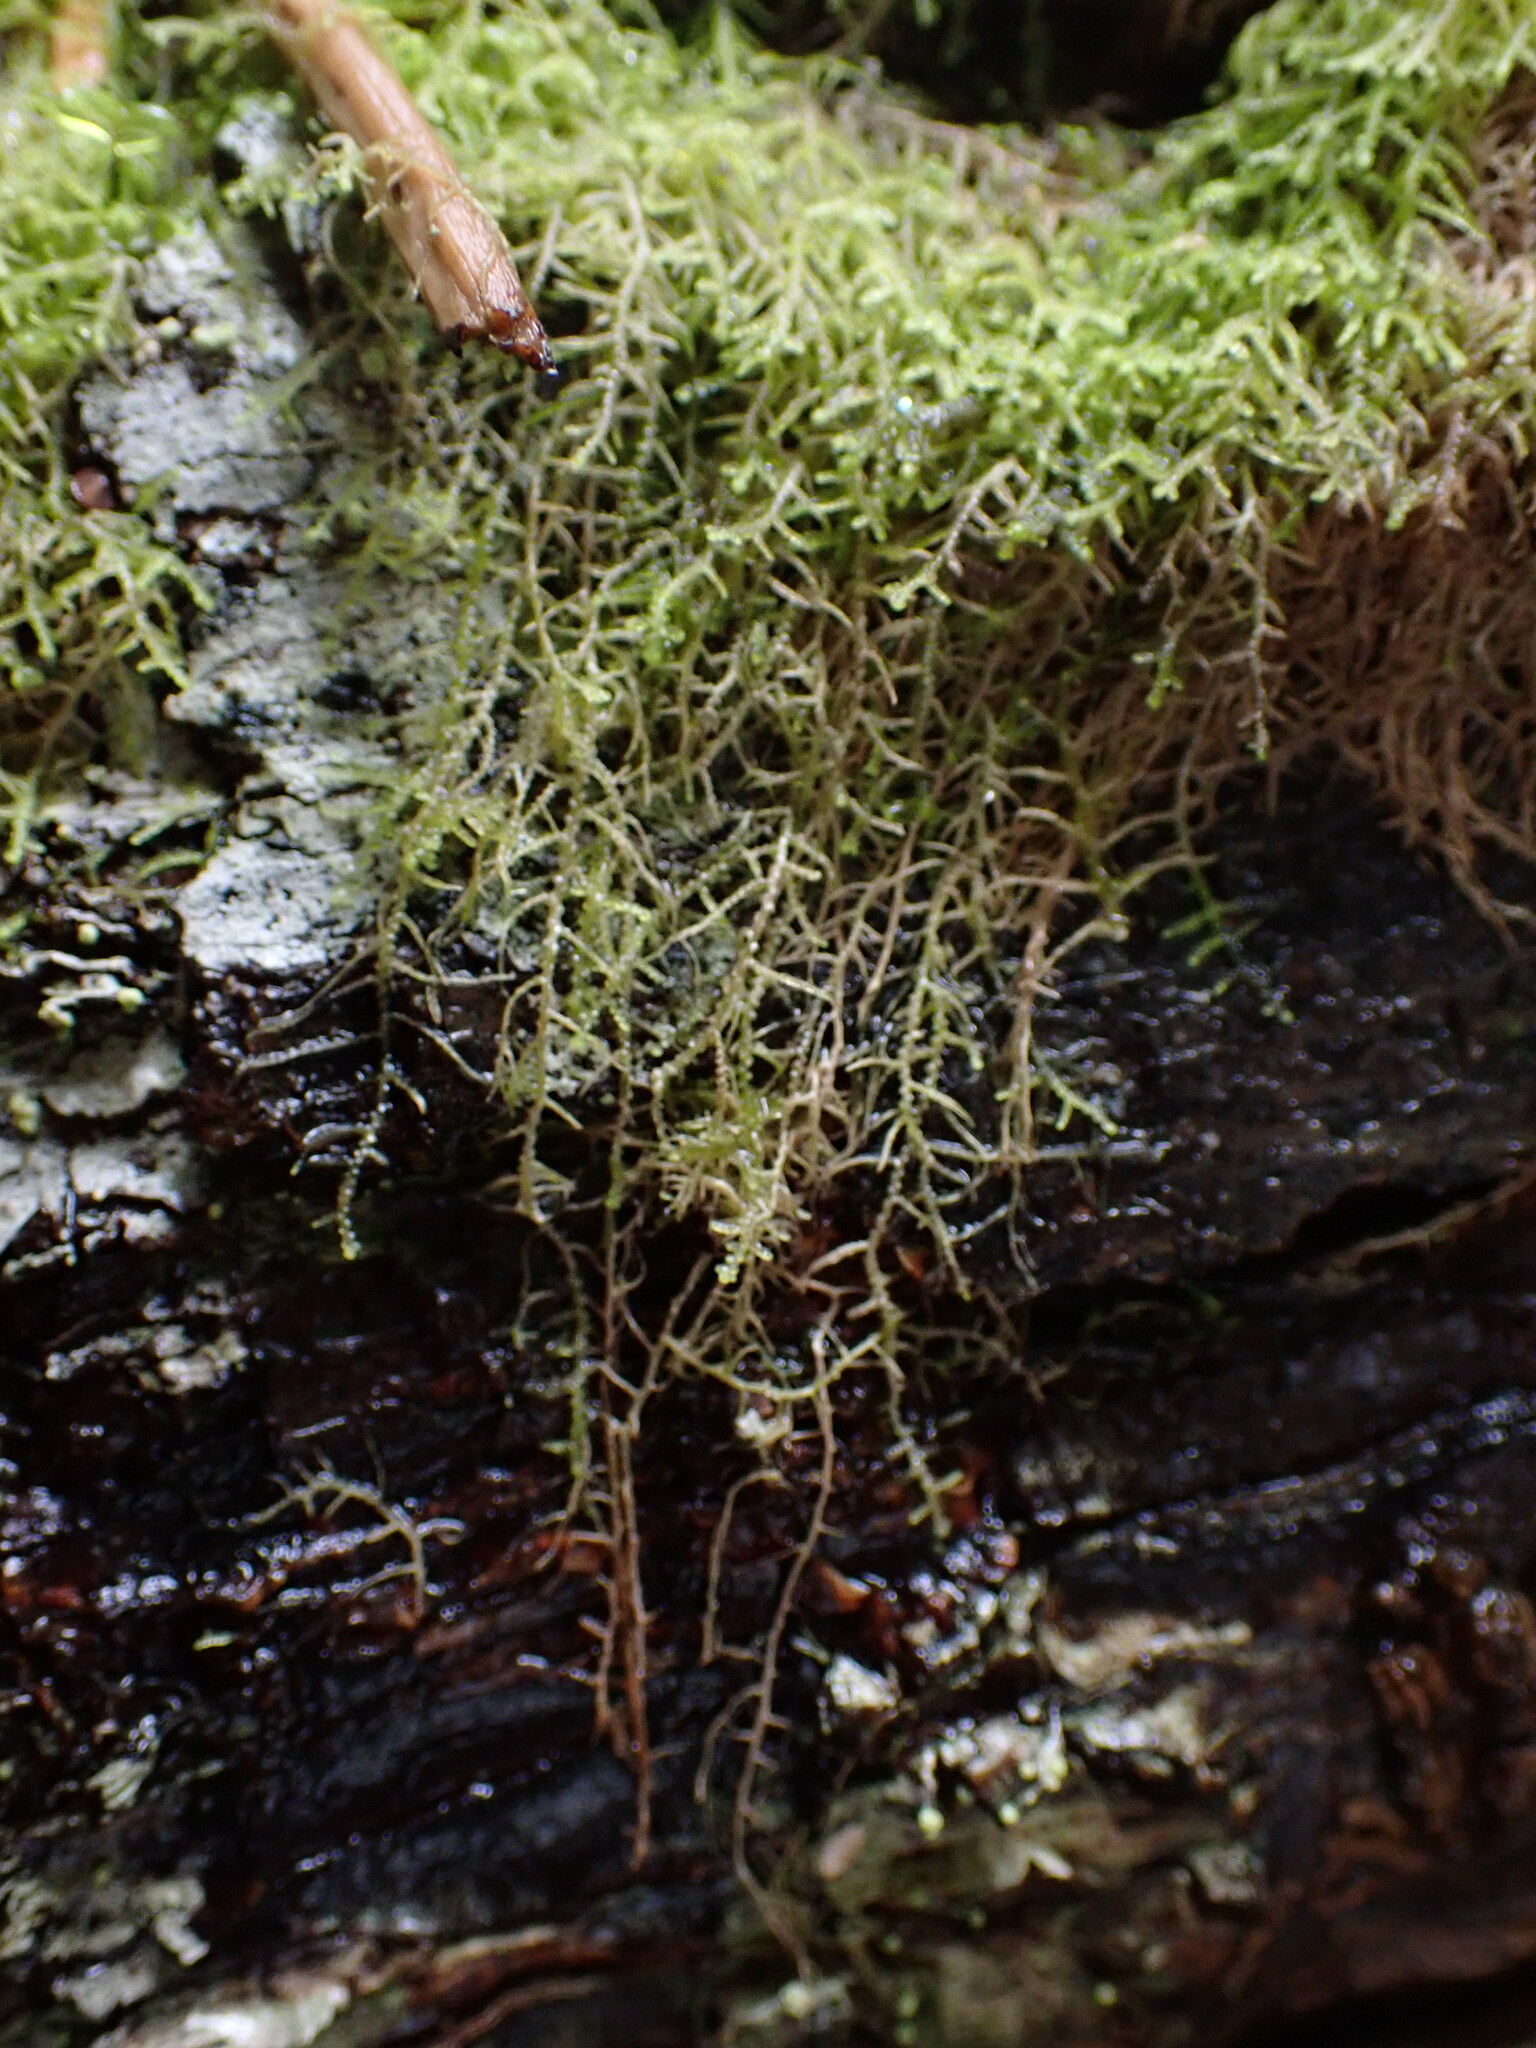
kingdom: Plantae
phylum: Marchantiophyta
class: Jungermanniopsida
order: Jungermanniales
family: Lepidoziaceae
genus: Lepidozia
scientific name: Lepidozia reptans
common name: Creeping fingerwort
